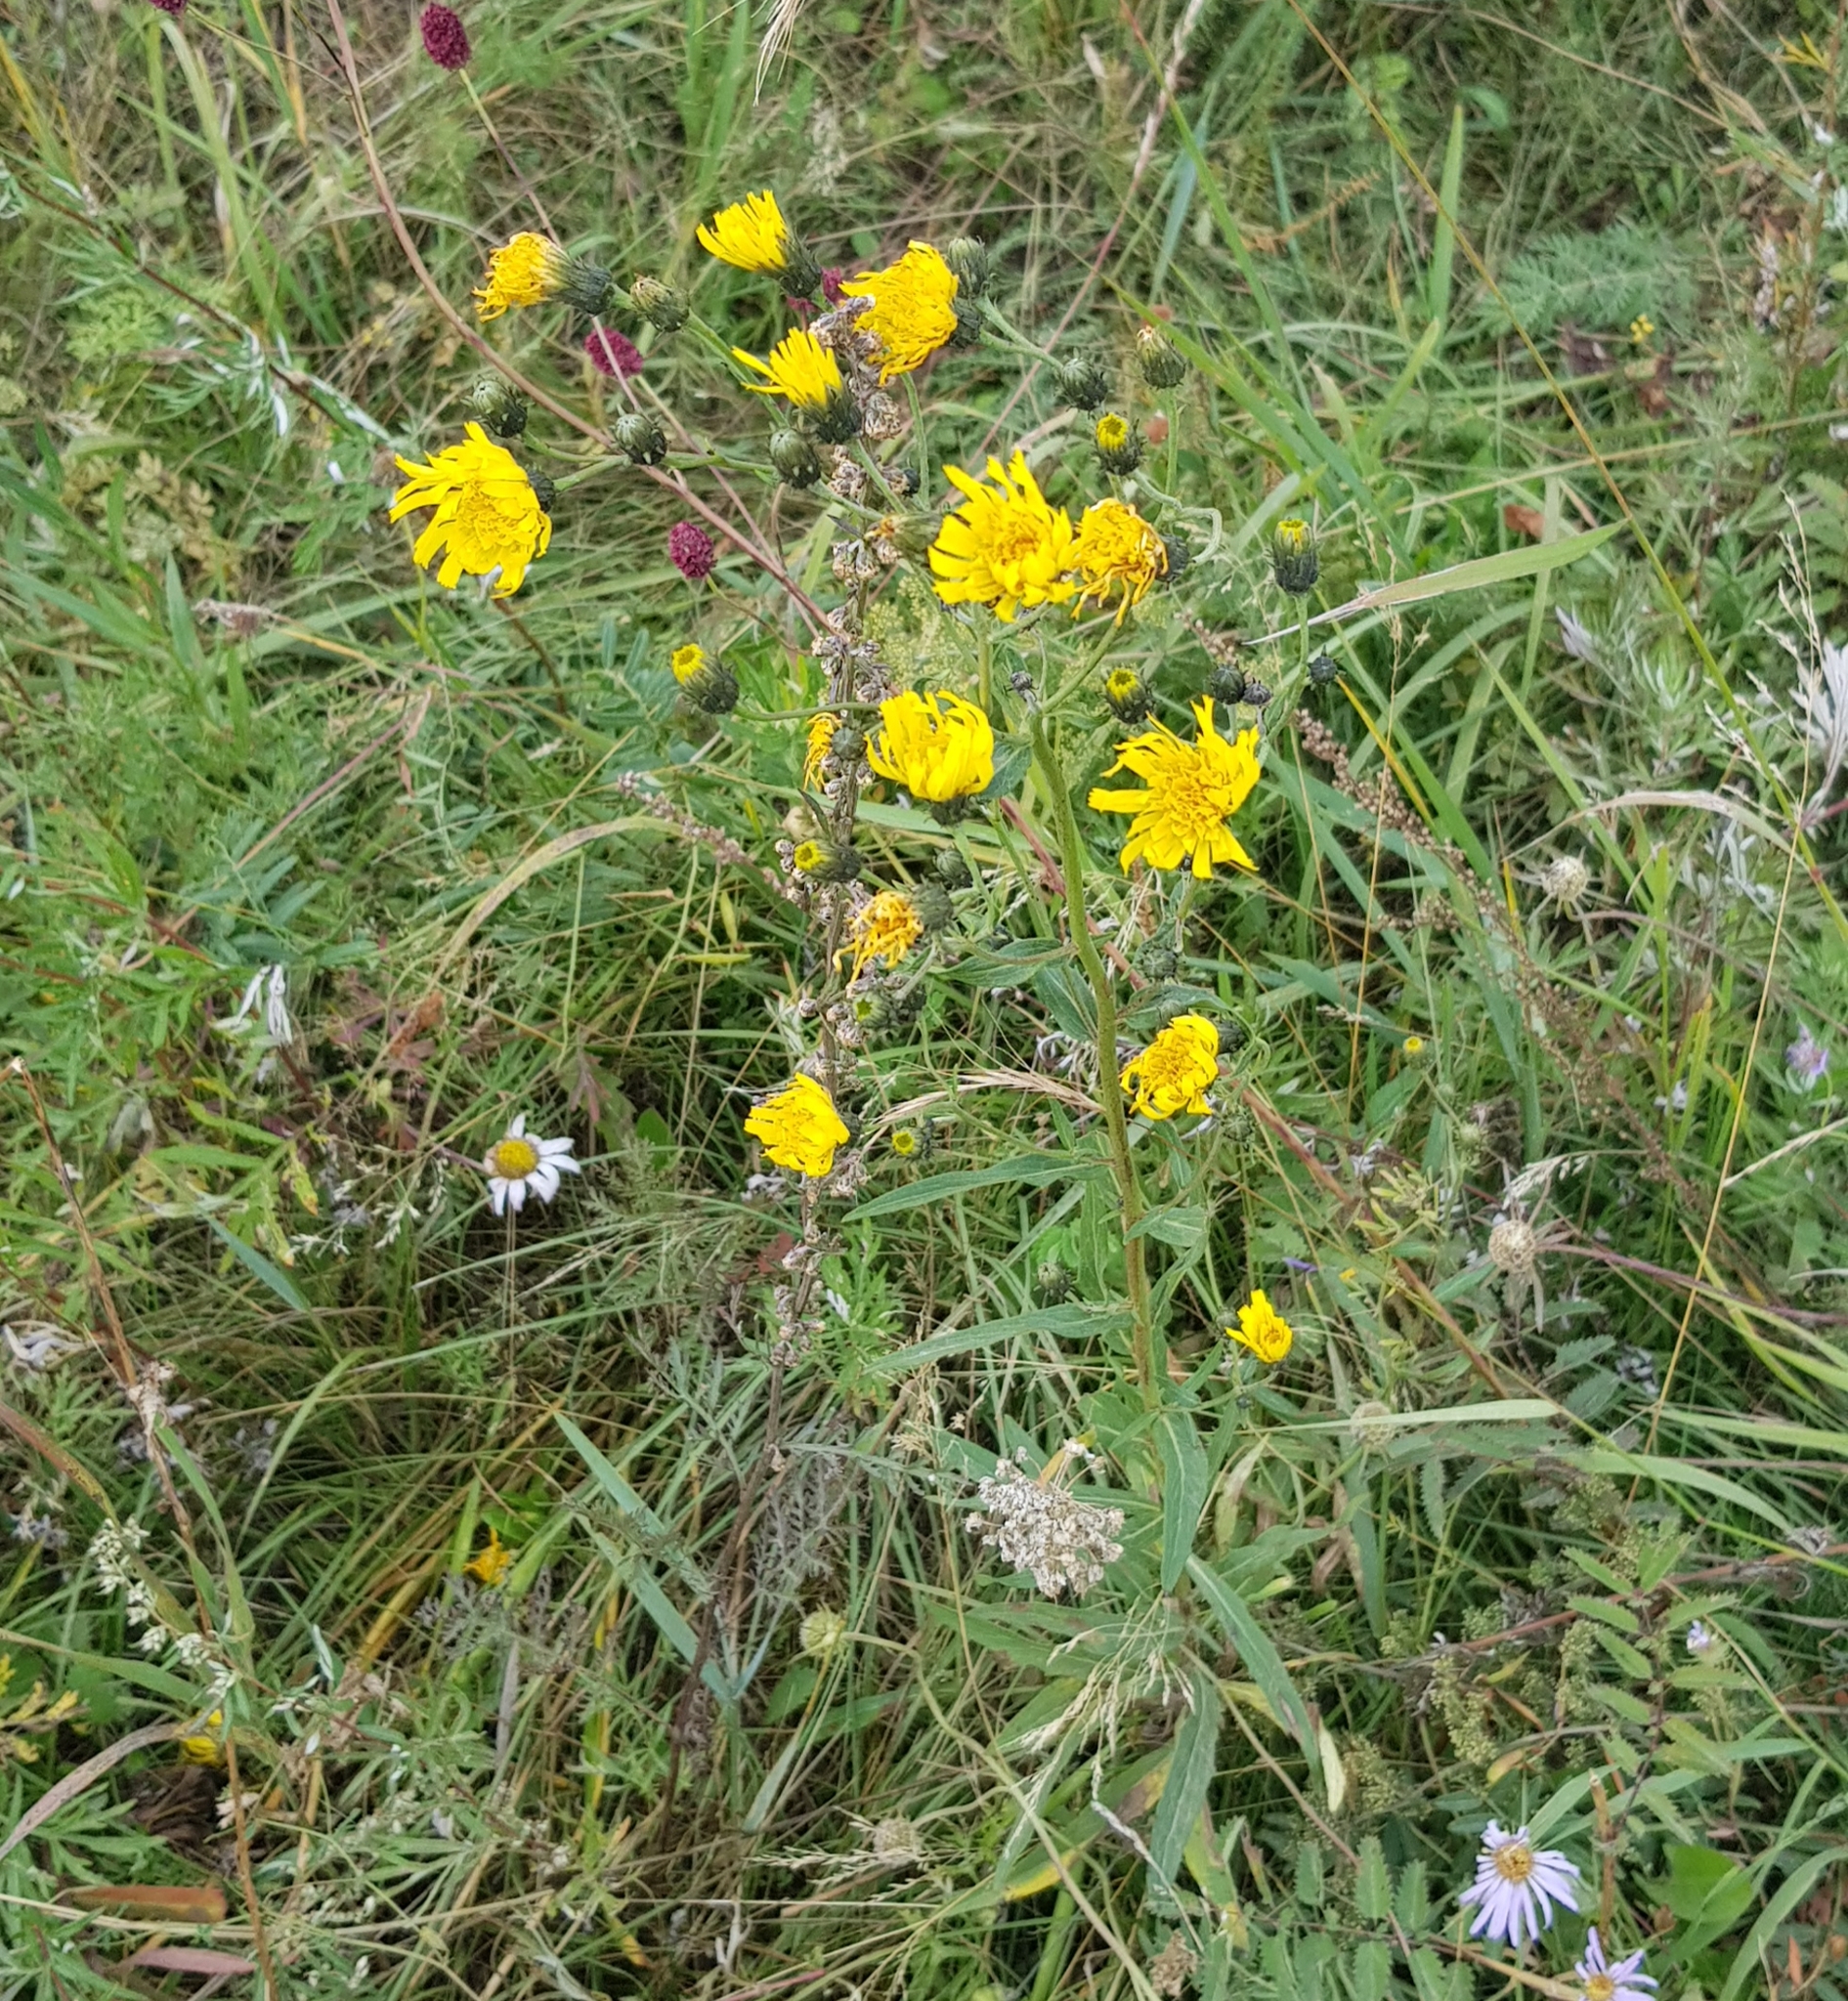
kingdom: Plantae
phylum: Tracheophyta
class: Magnoliopsida
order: Asterales
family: Asteraceae
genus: Hieracium
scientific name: Hieracium umbellatum
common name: Northern hawkweed
